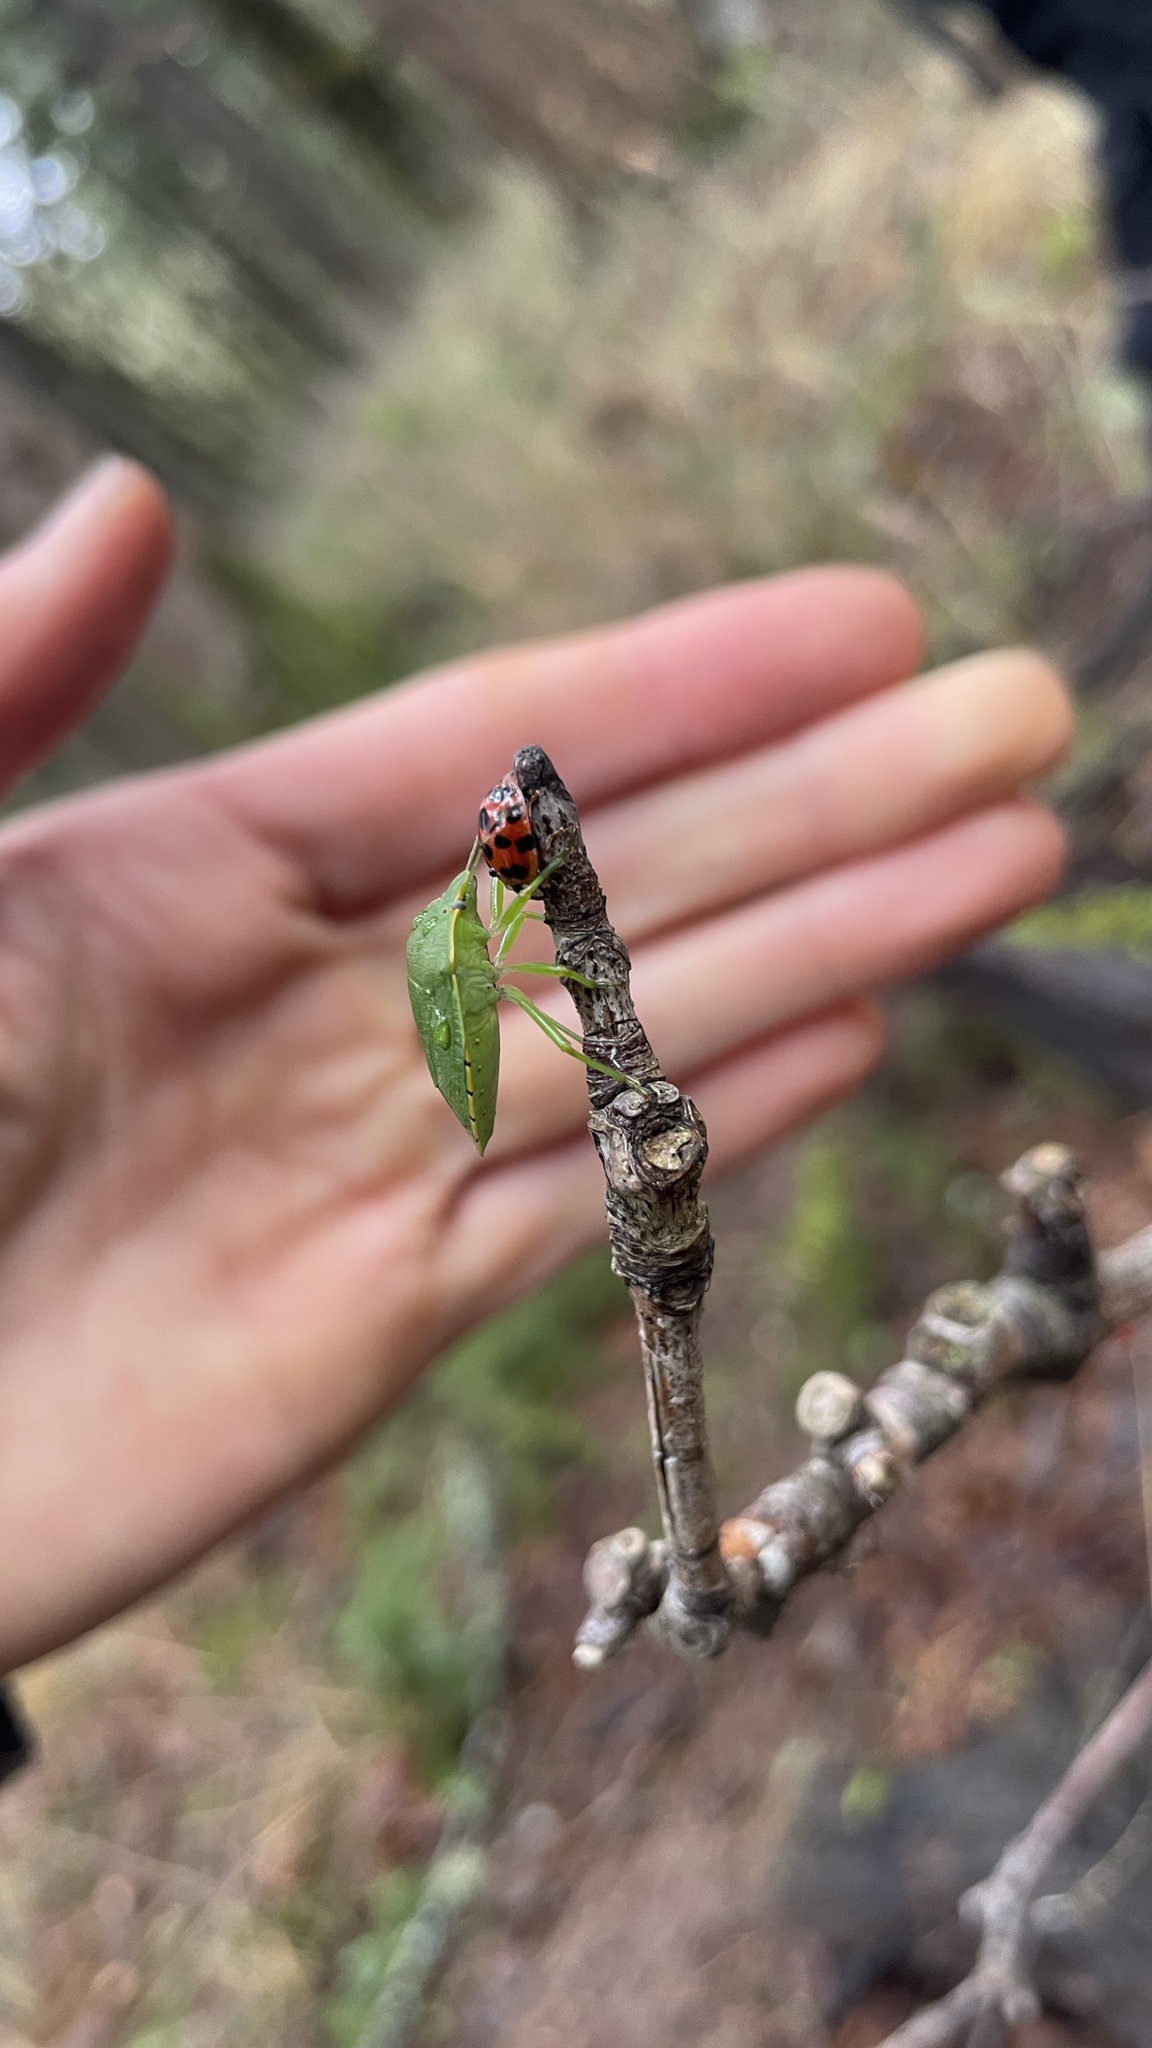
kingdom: Animalia
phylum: Arthropoda
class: Insecta
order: Hemiptera
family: Pentatomidae
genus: Chinavia
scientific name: Chinavia hilaris
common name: Green stink bug
